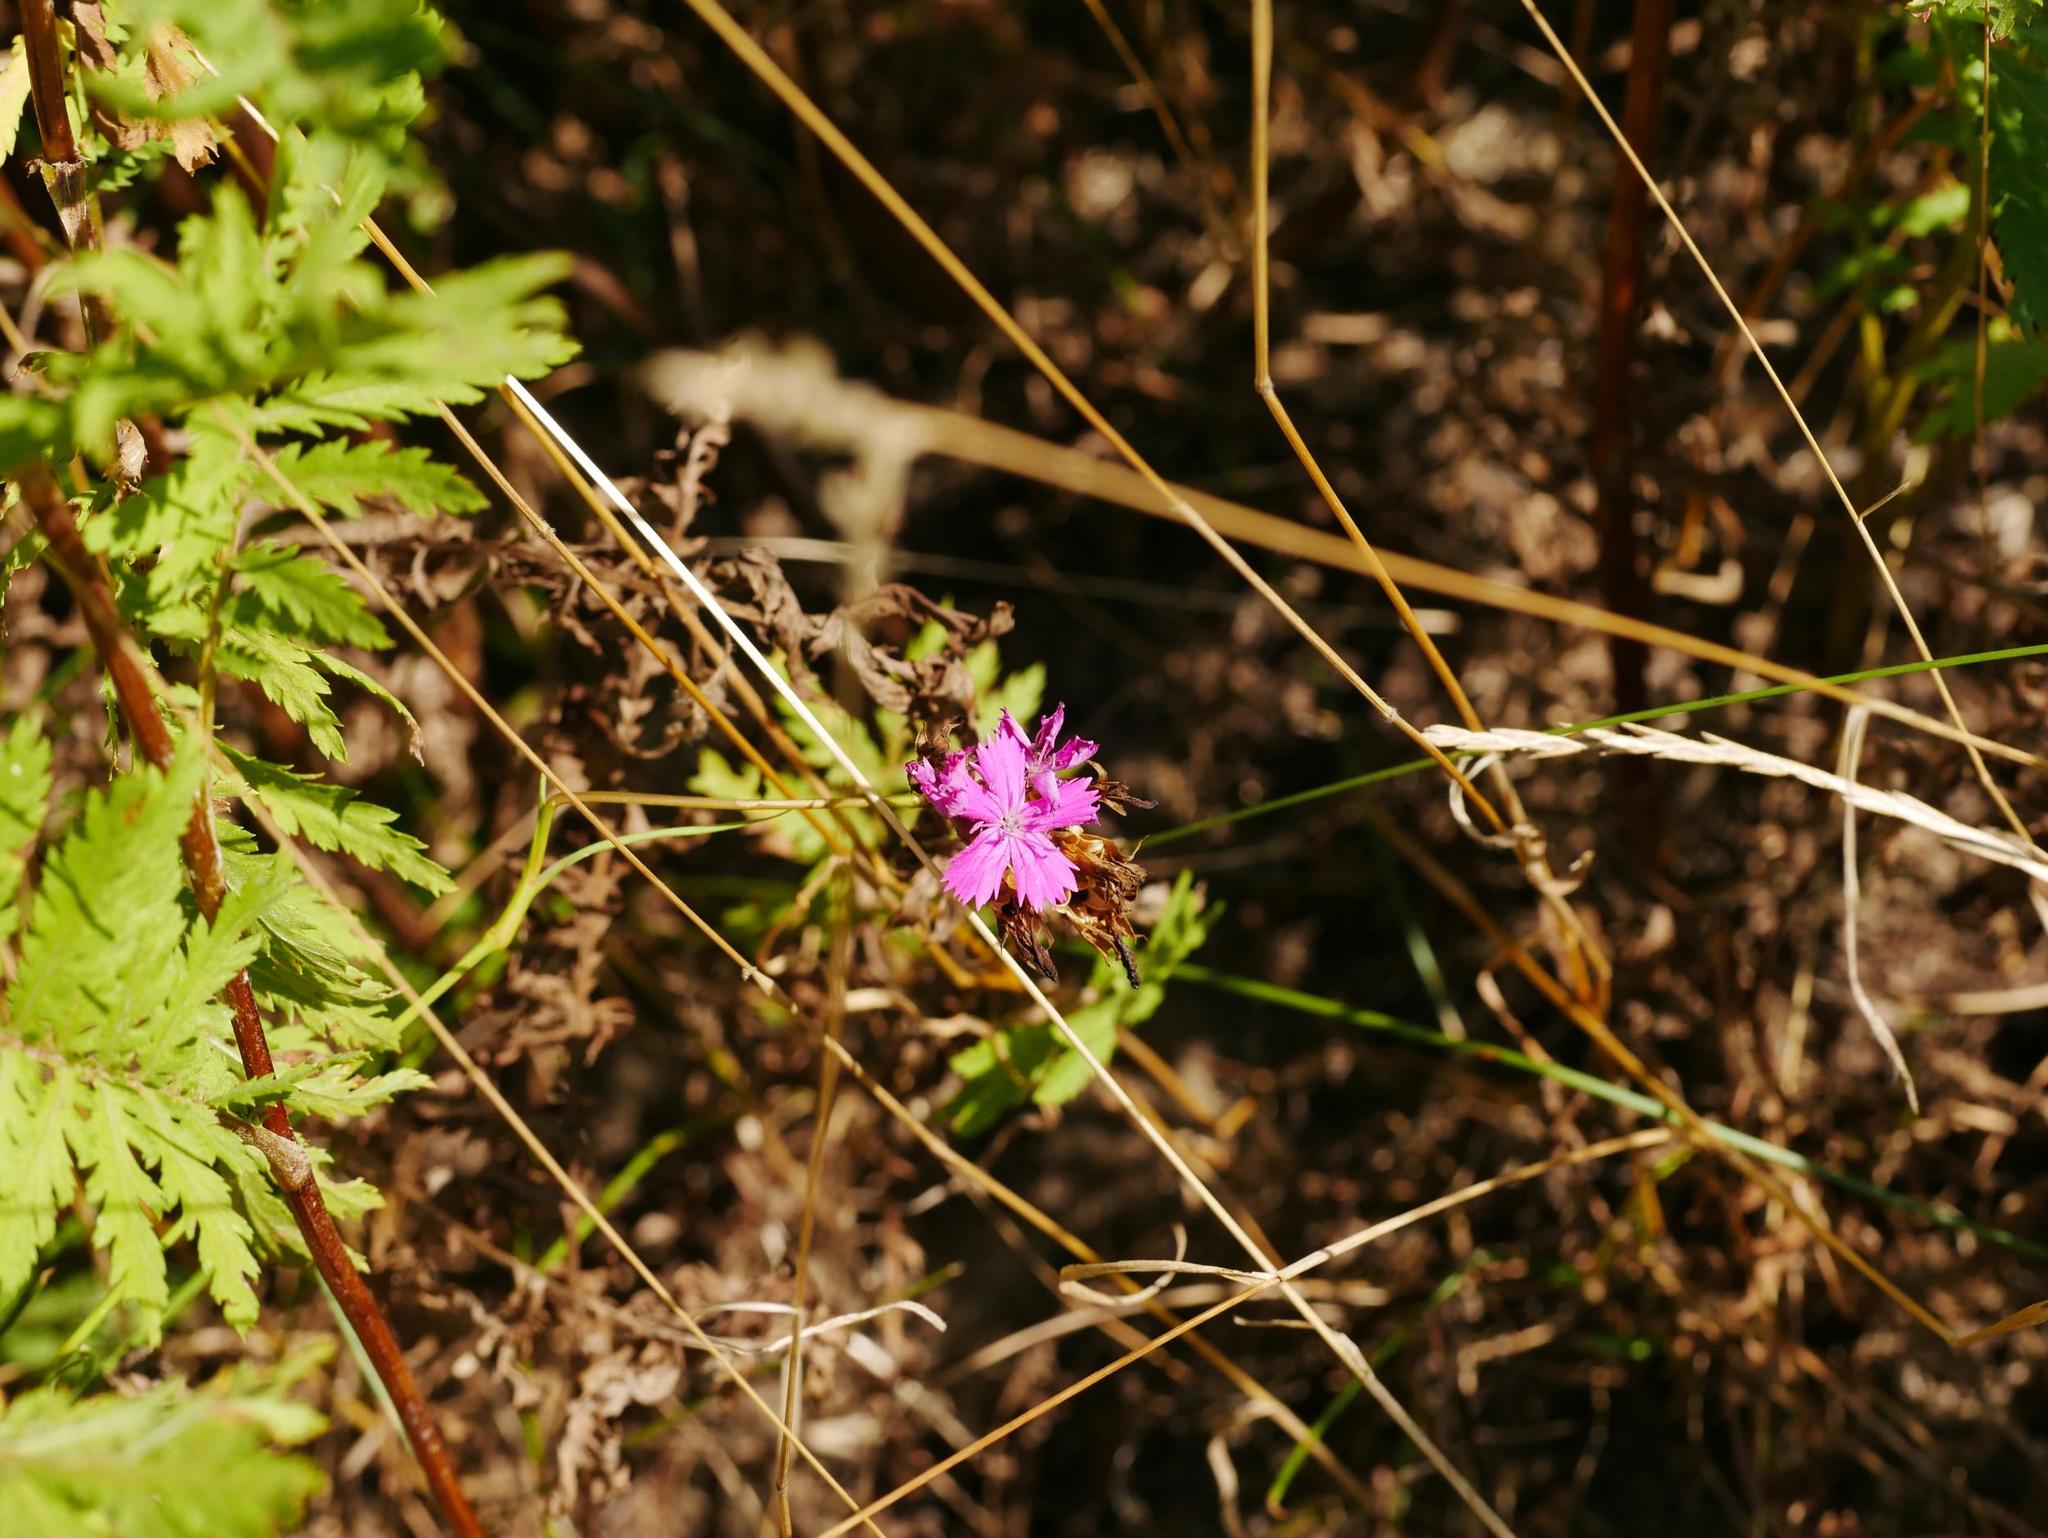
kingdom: Plantae
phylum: Tracheophyta
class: Magnoliopsida
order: Asterales
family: Asteraceae
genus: Tanacetum
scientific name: Tanacetum vulgare
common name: Common tansy
